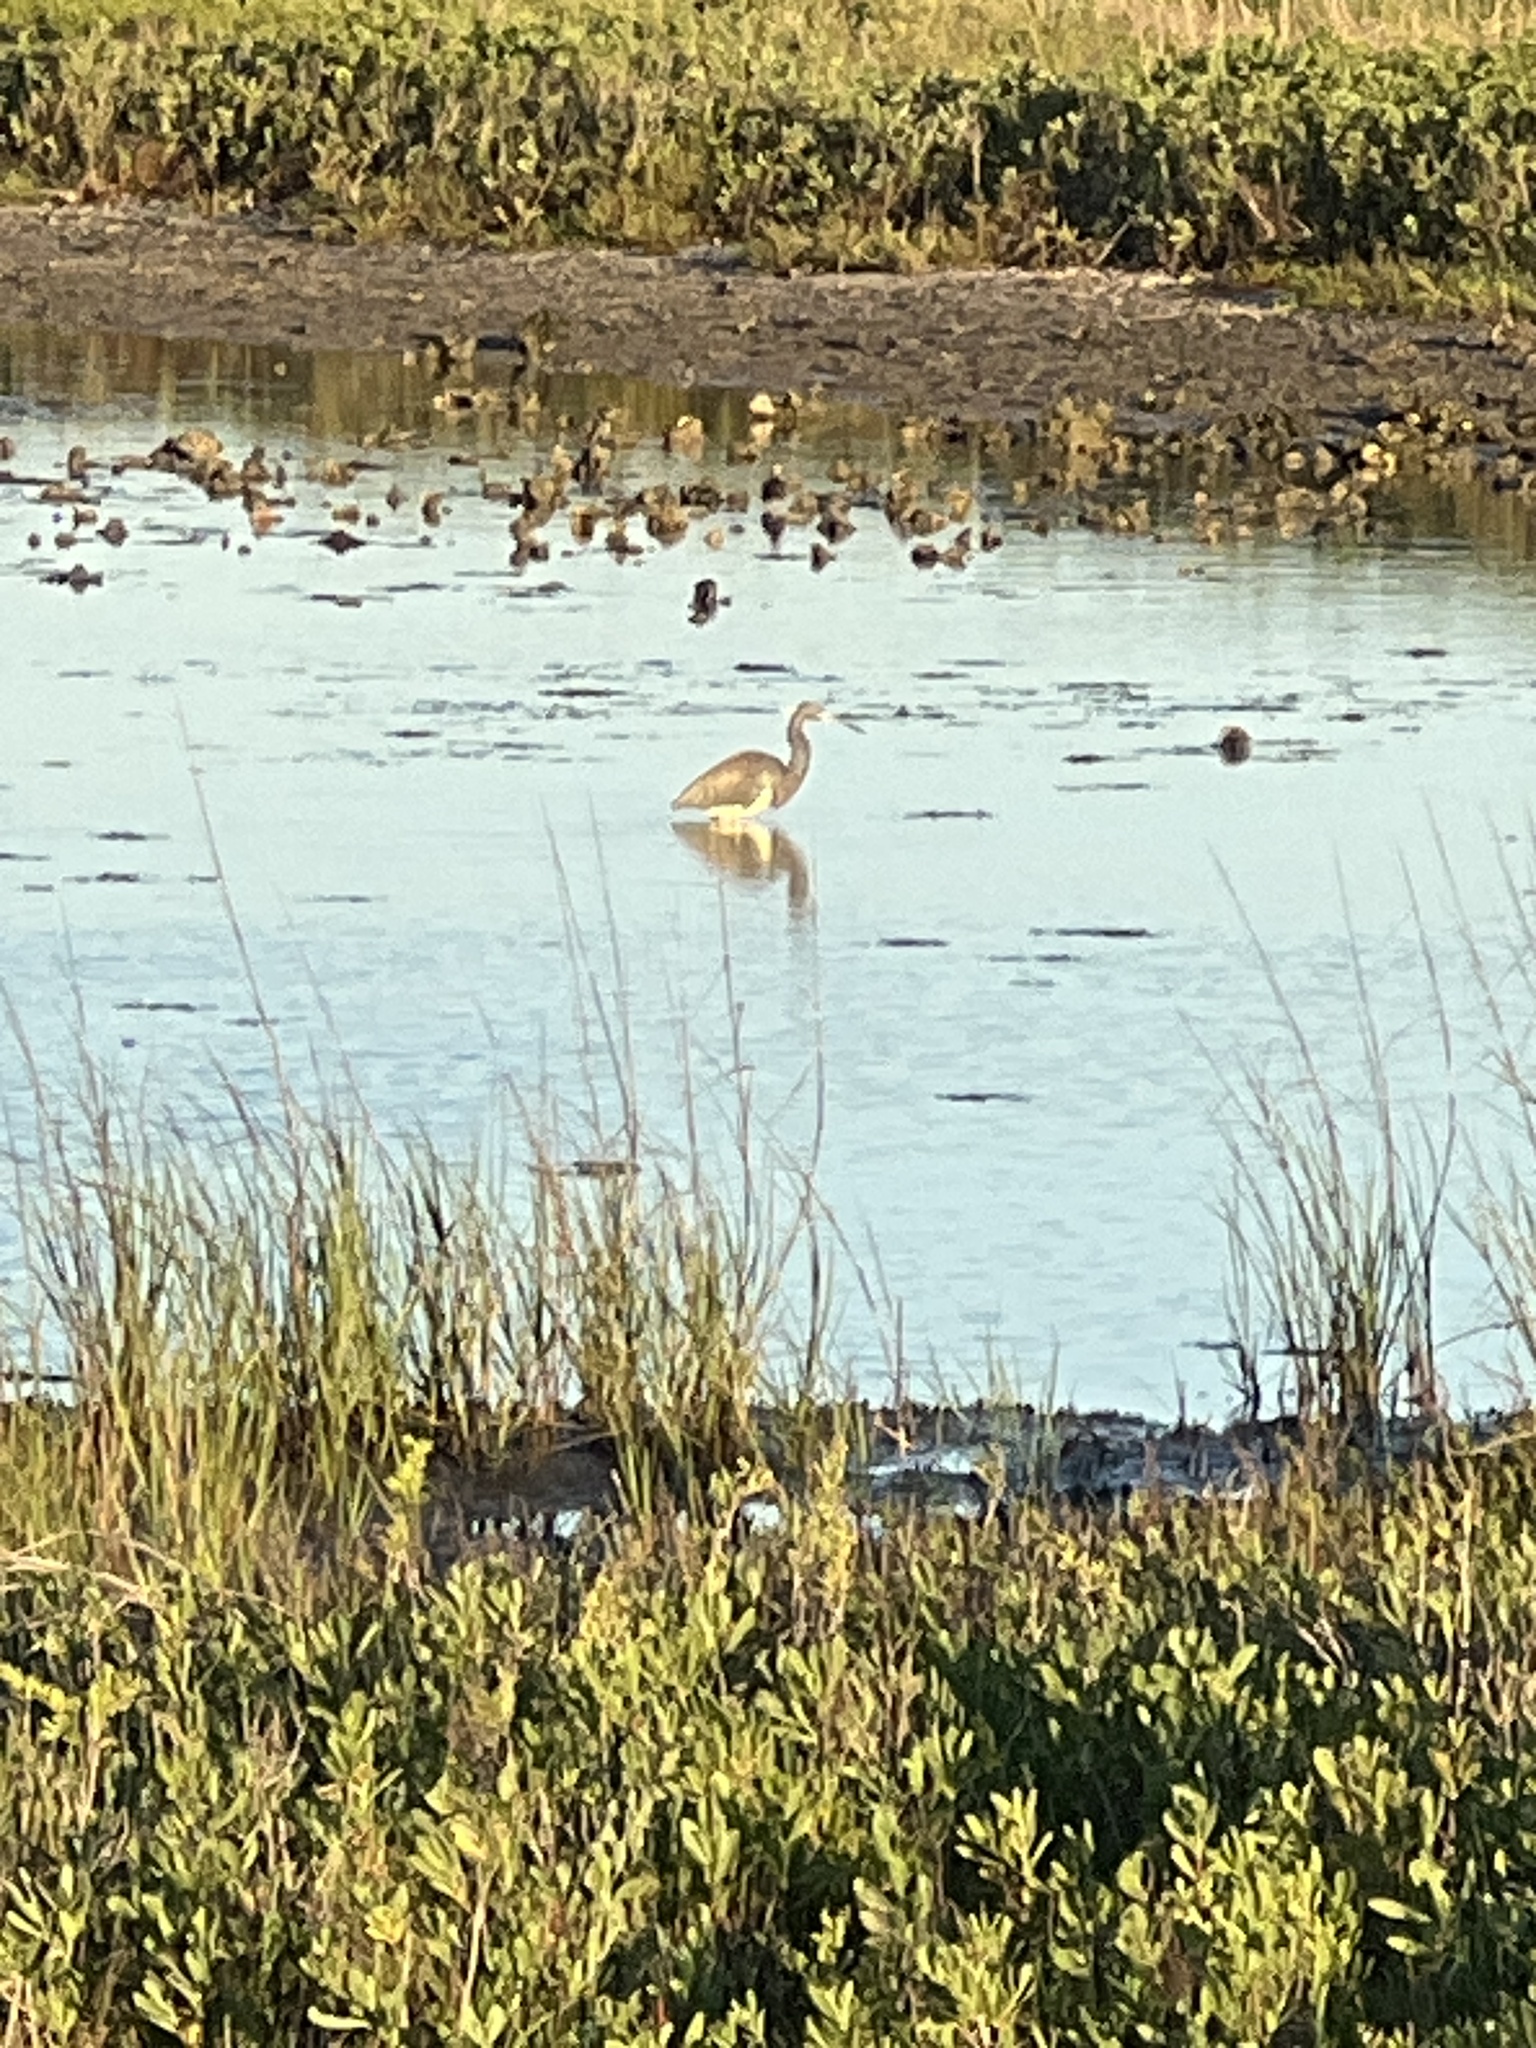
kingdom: Animalia
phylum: Chordata
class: Aves
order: Pelecaniformes
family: Ardeidae
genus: Egretta
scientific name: Egretta tricolor
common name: Tricolored heron
